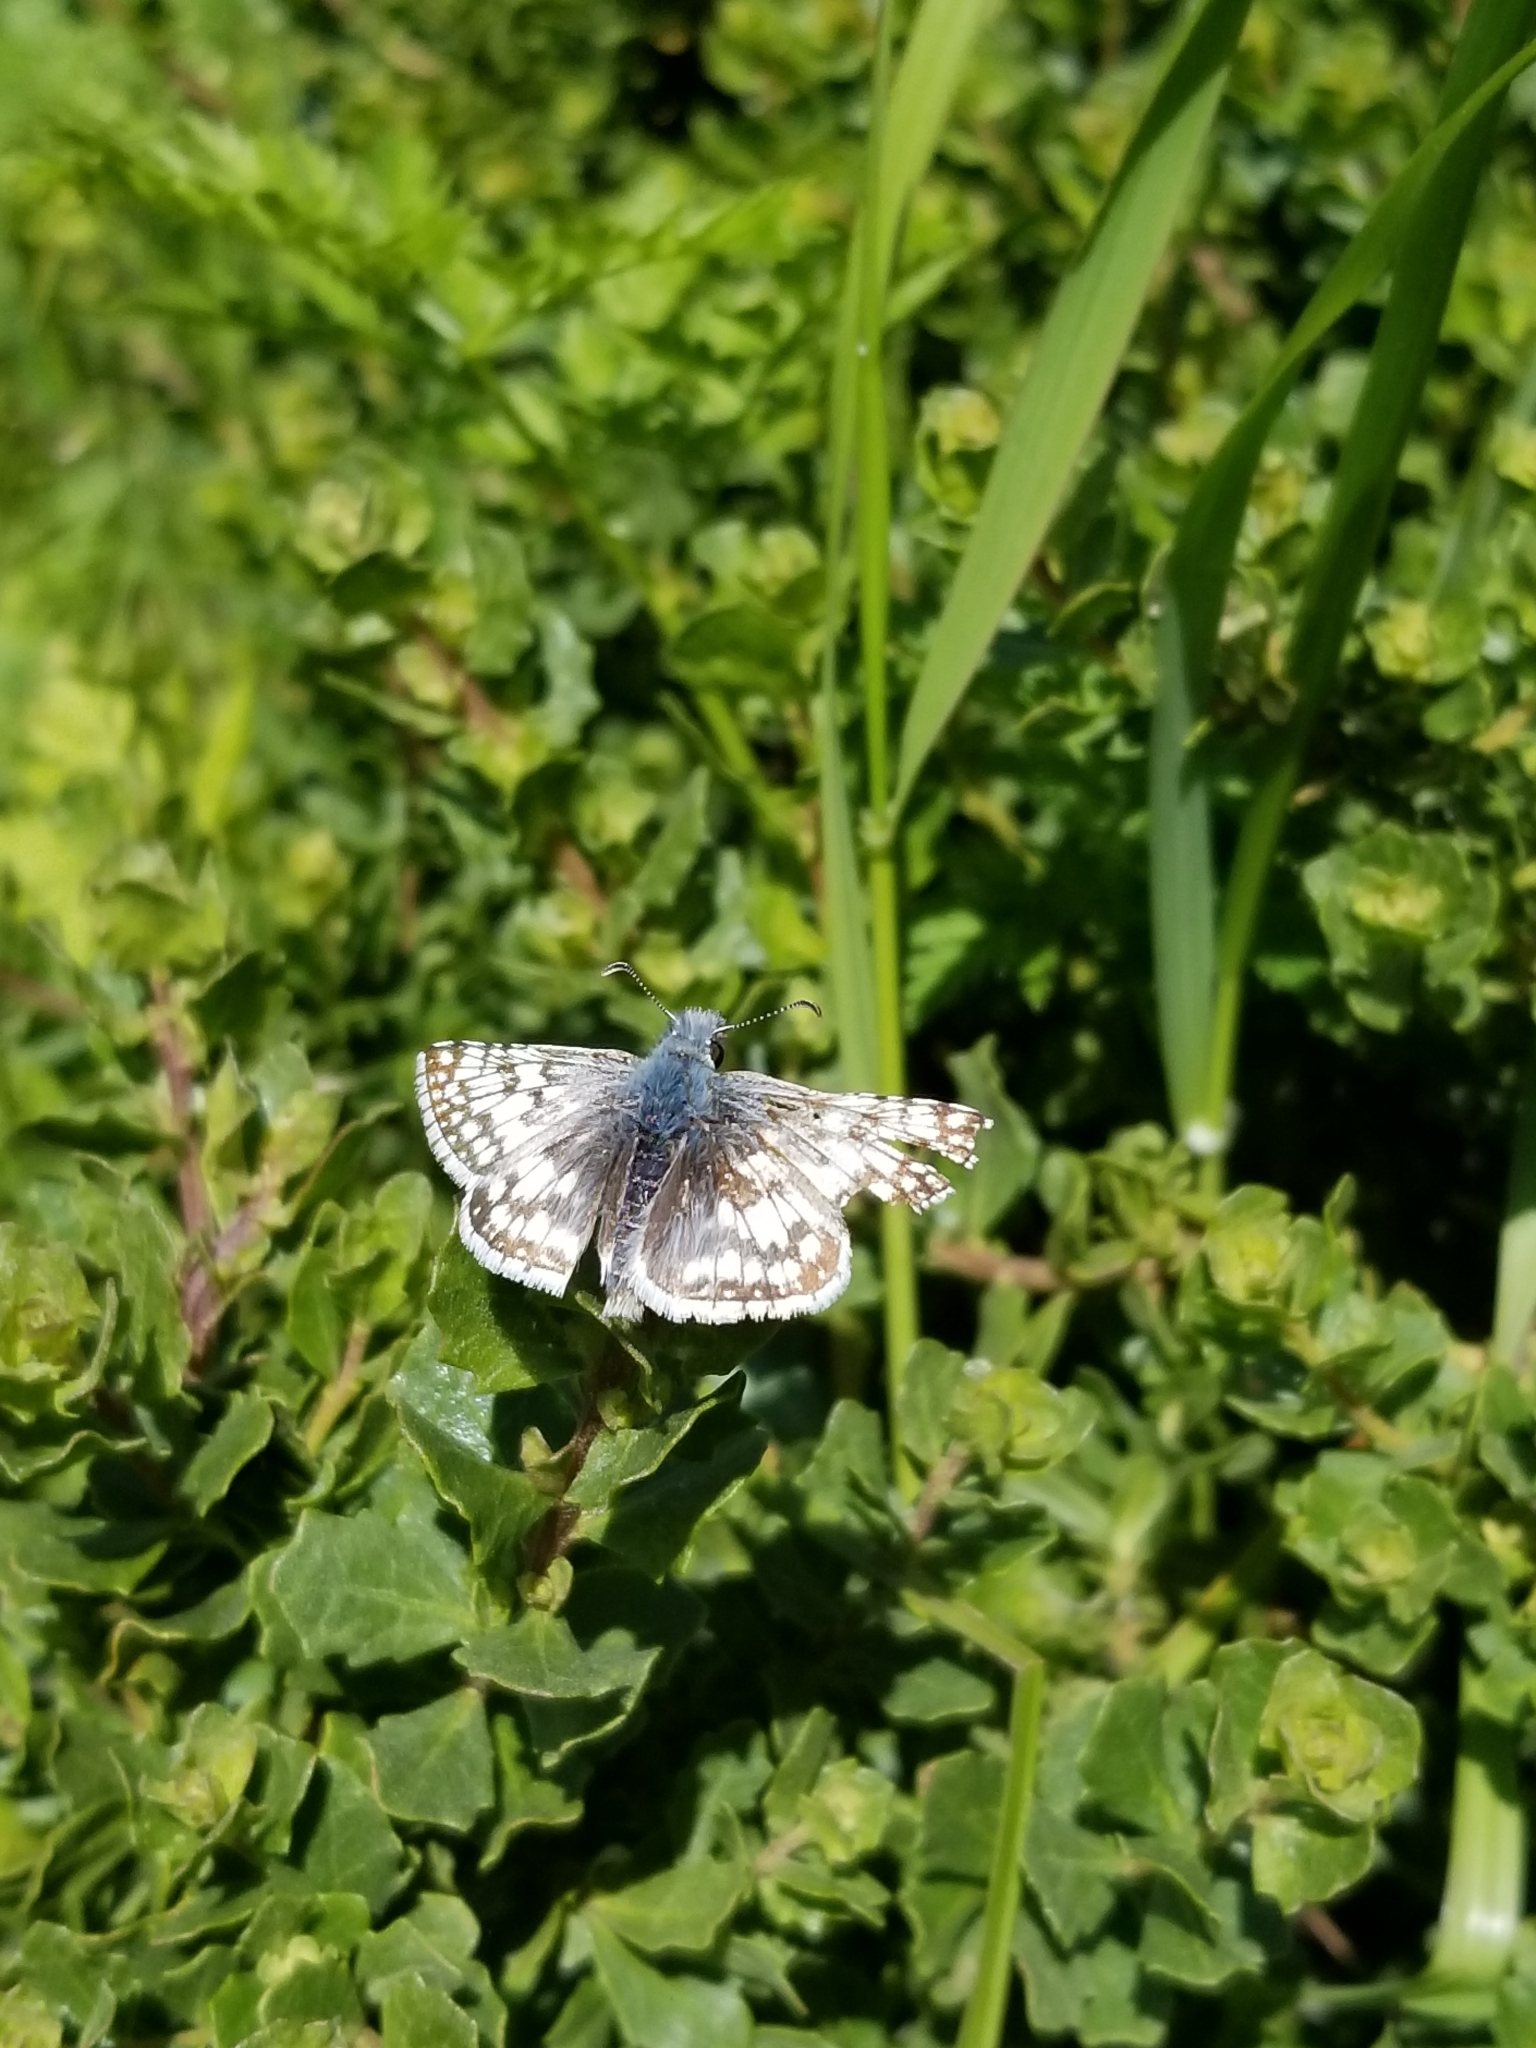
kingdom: Animalia
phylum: Arthropoda
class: Insecta
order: Lepidoptera
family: Hesperiidae
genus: Burnsius
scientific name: Burnsius communis
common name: Common checkered-skipper
